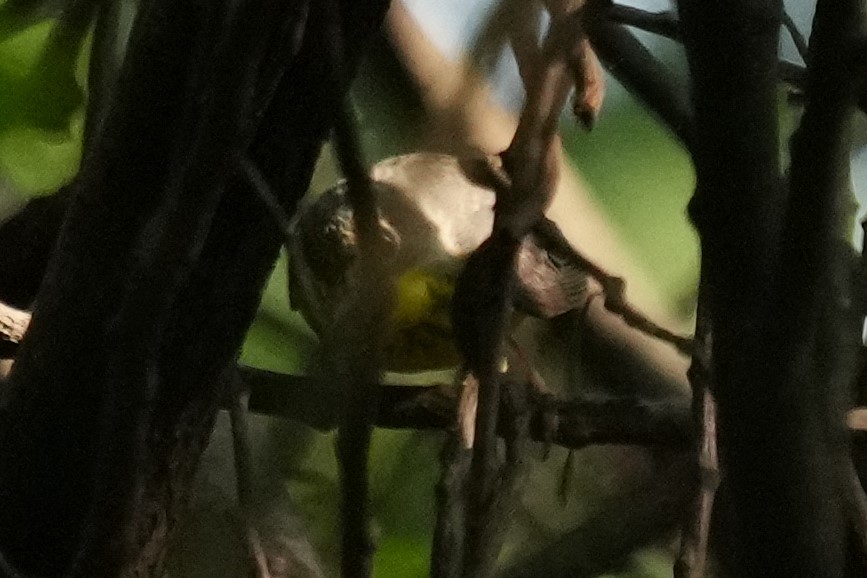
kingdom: Animalia
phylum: Chordata
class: Aves
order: Passeriformes
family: Parulidae
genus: Cardellina
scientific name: Cardellina canadensis
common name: Canada warbler
